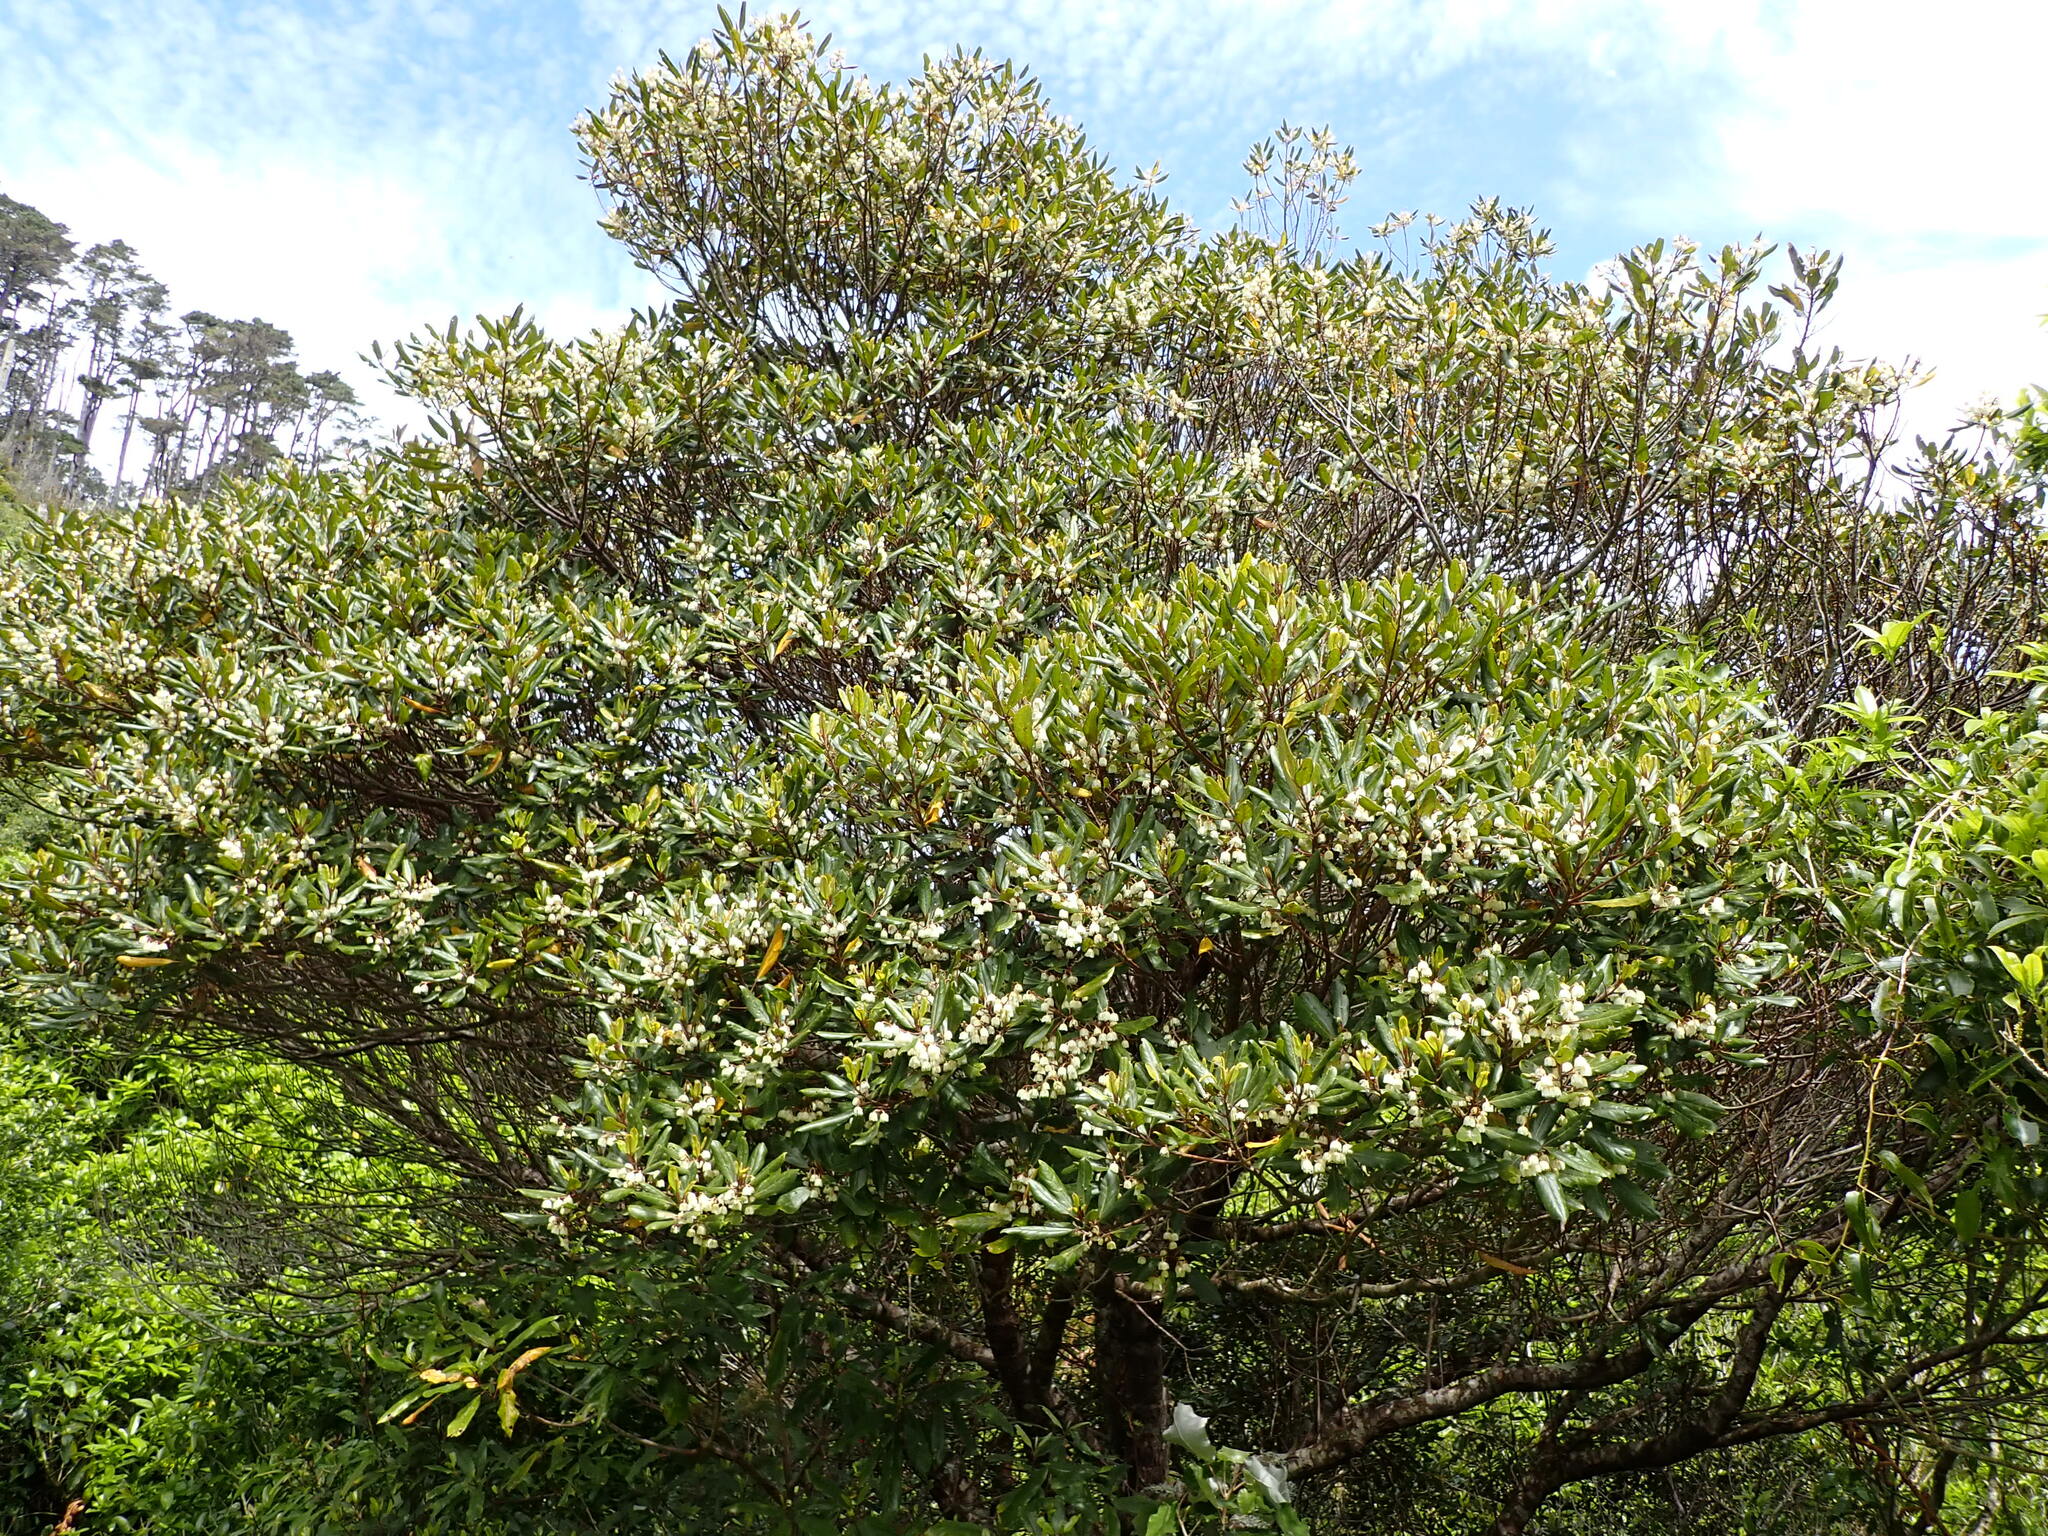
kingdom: Plantae
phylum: Tracheophyta
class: Magnoliopsida
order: Oxalidales
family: Elaeocarpaceae
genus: Elaeocarpus
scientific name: Elaeocarpus dentatus
